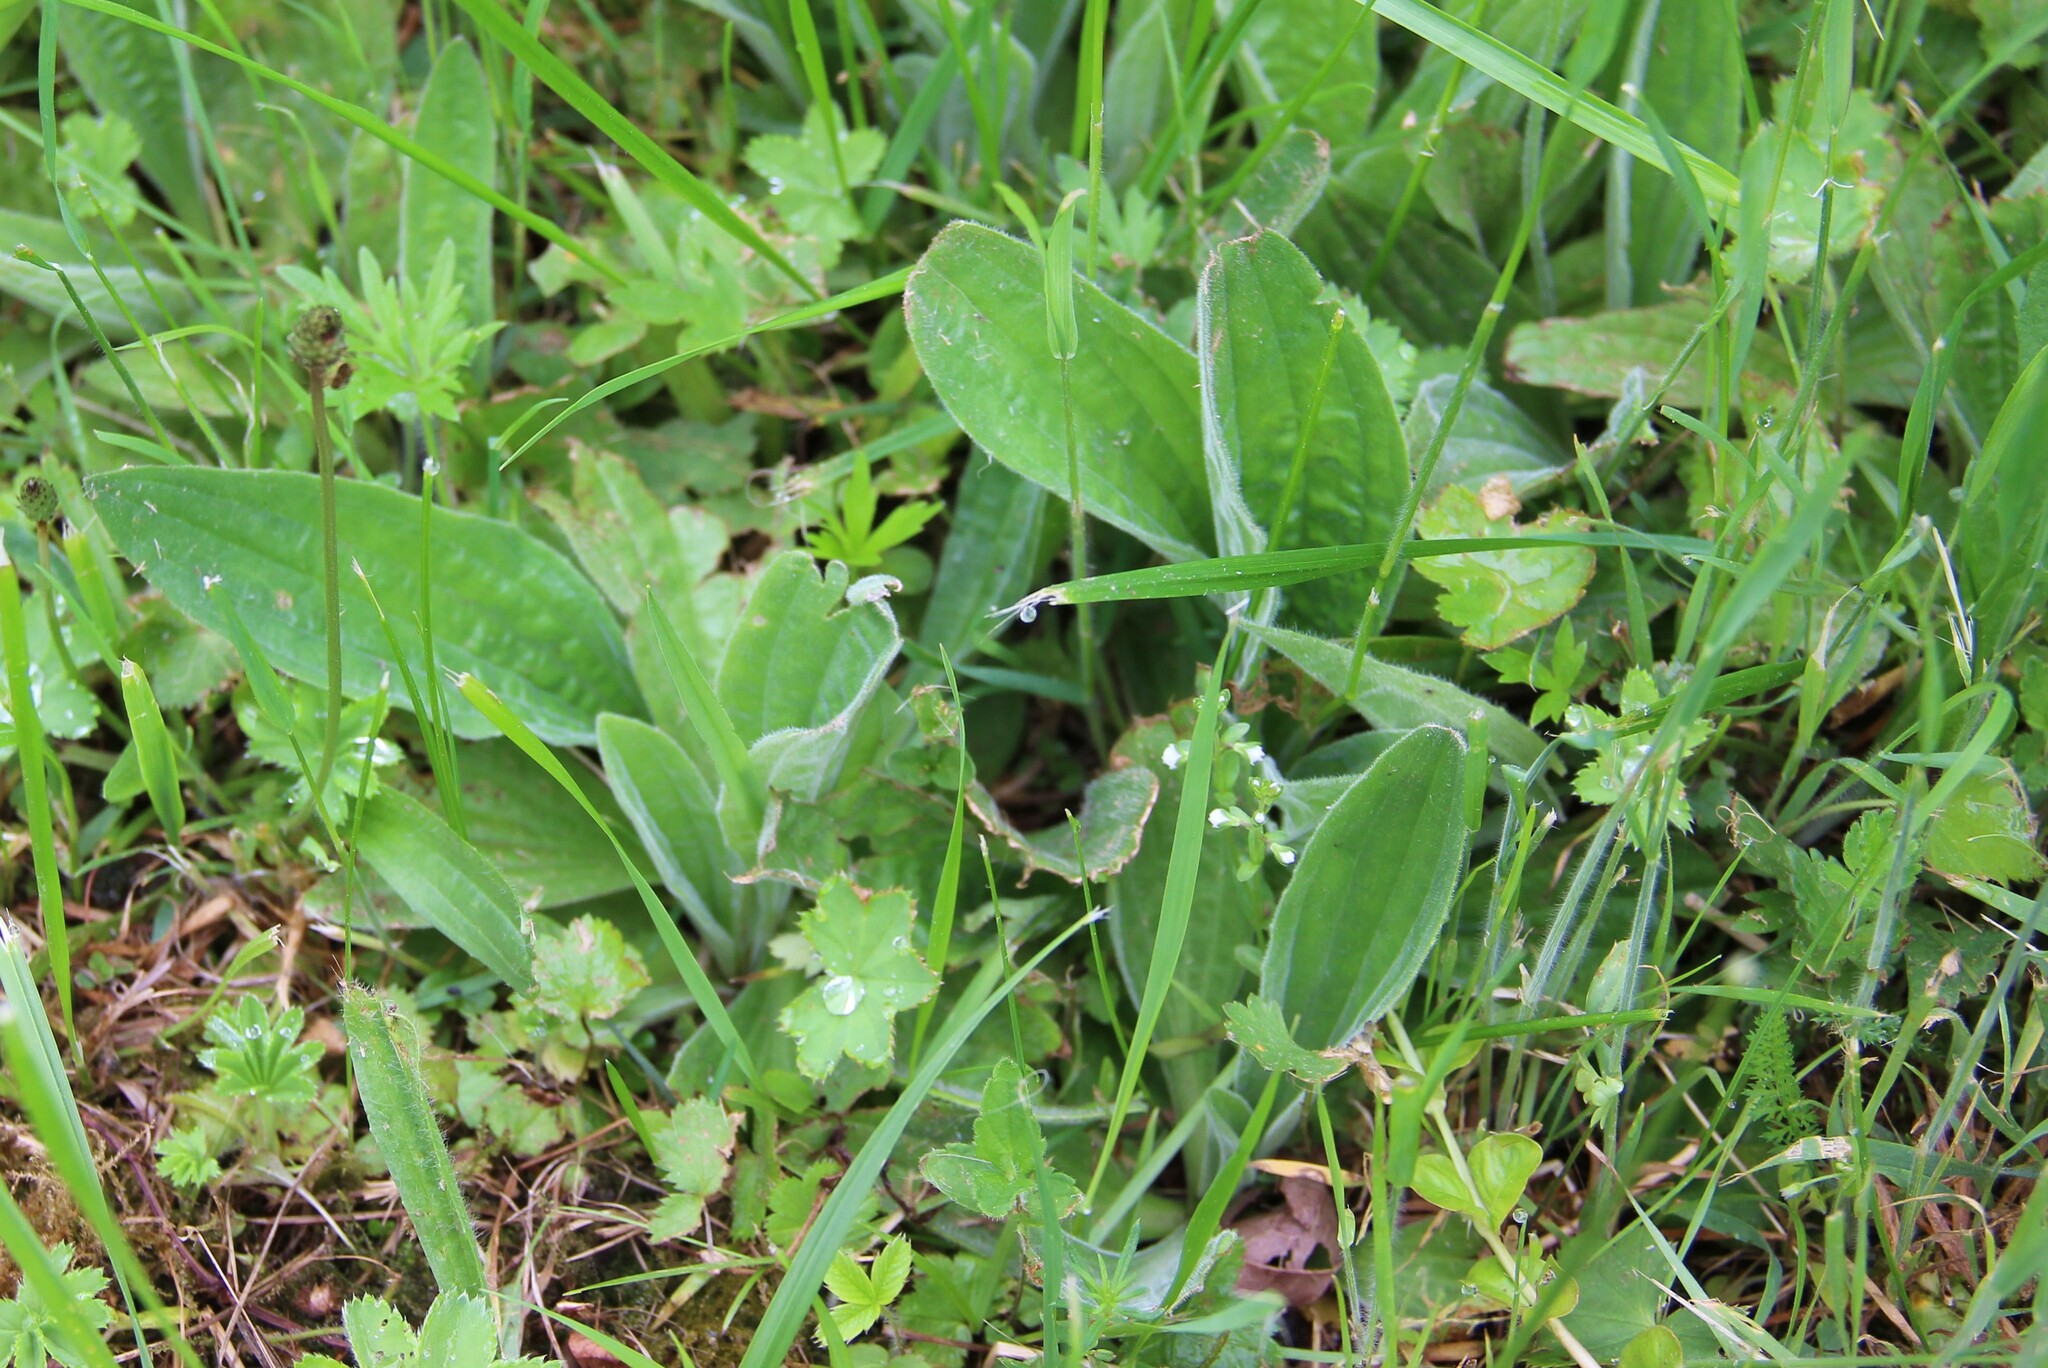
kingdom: Plantae
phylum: Tracheophyta
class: Magnoliopsida
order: Lamiales
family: Plantaginaceae
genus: Plantago
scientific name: Plantago media
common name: Hoary plantain
